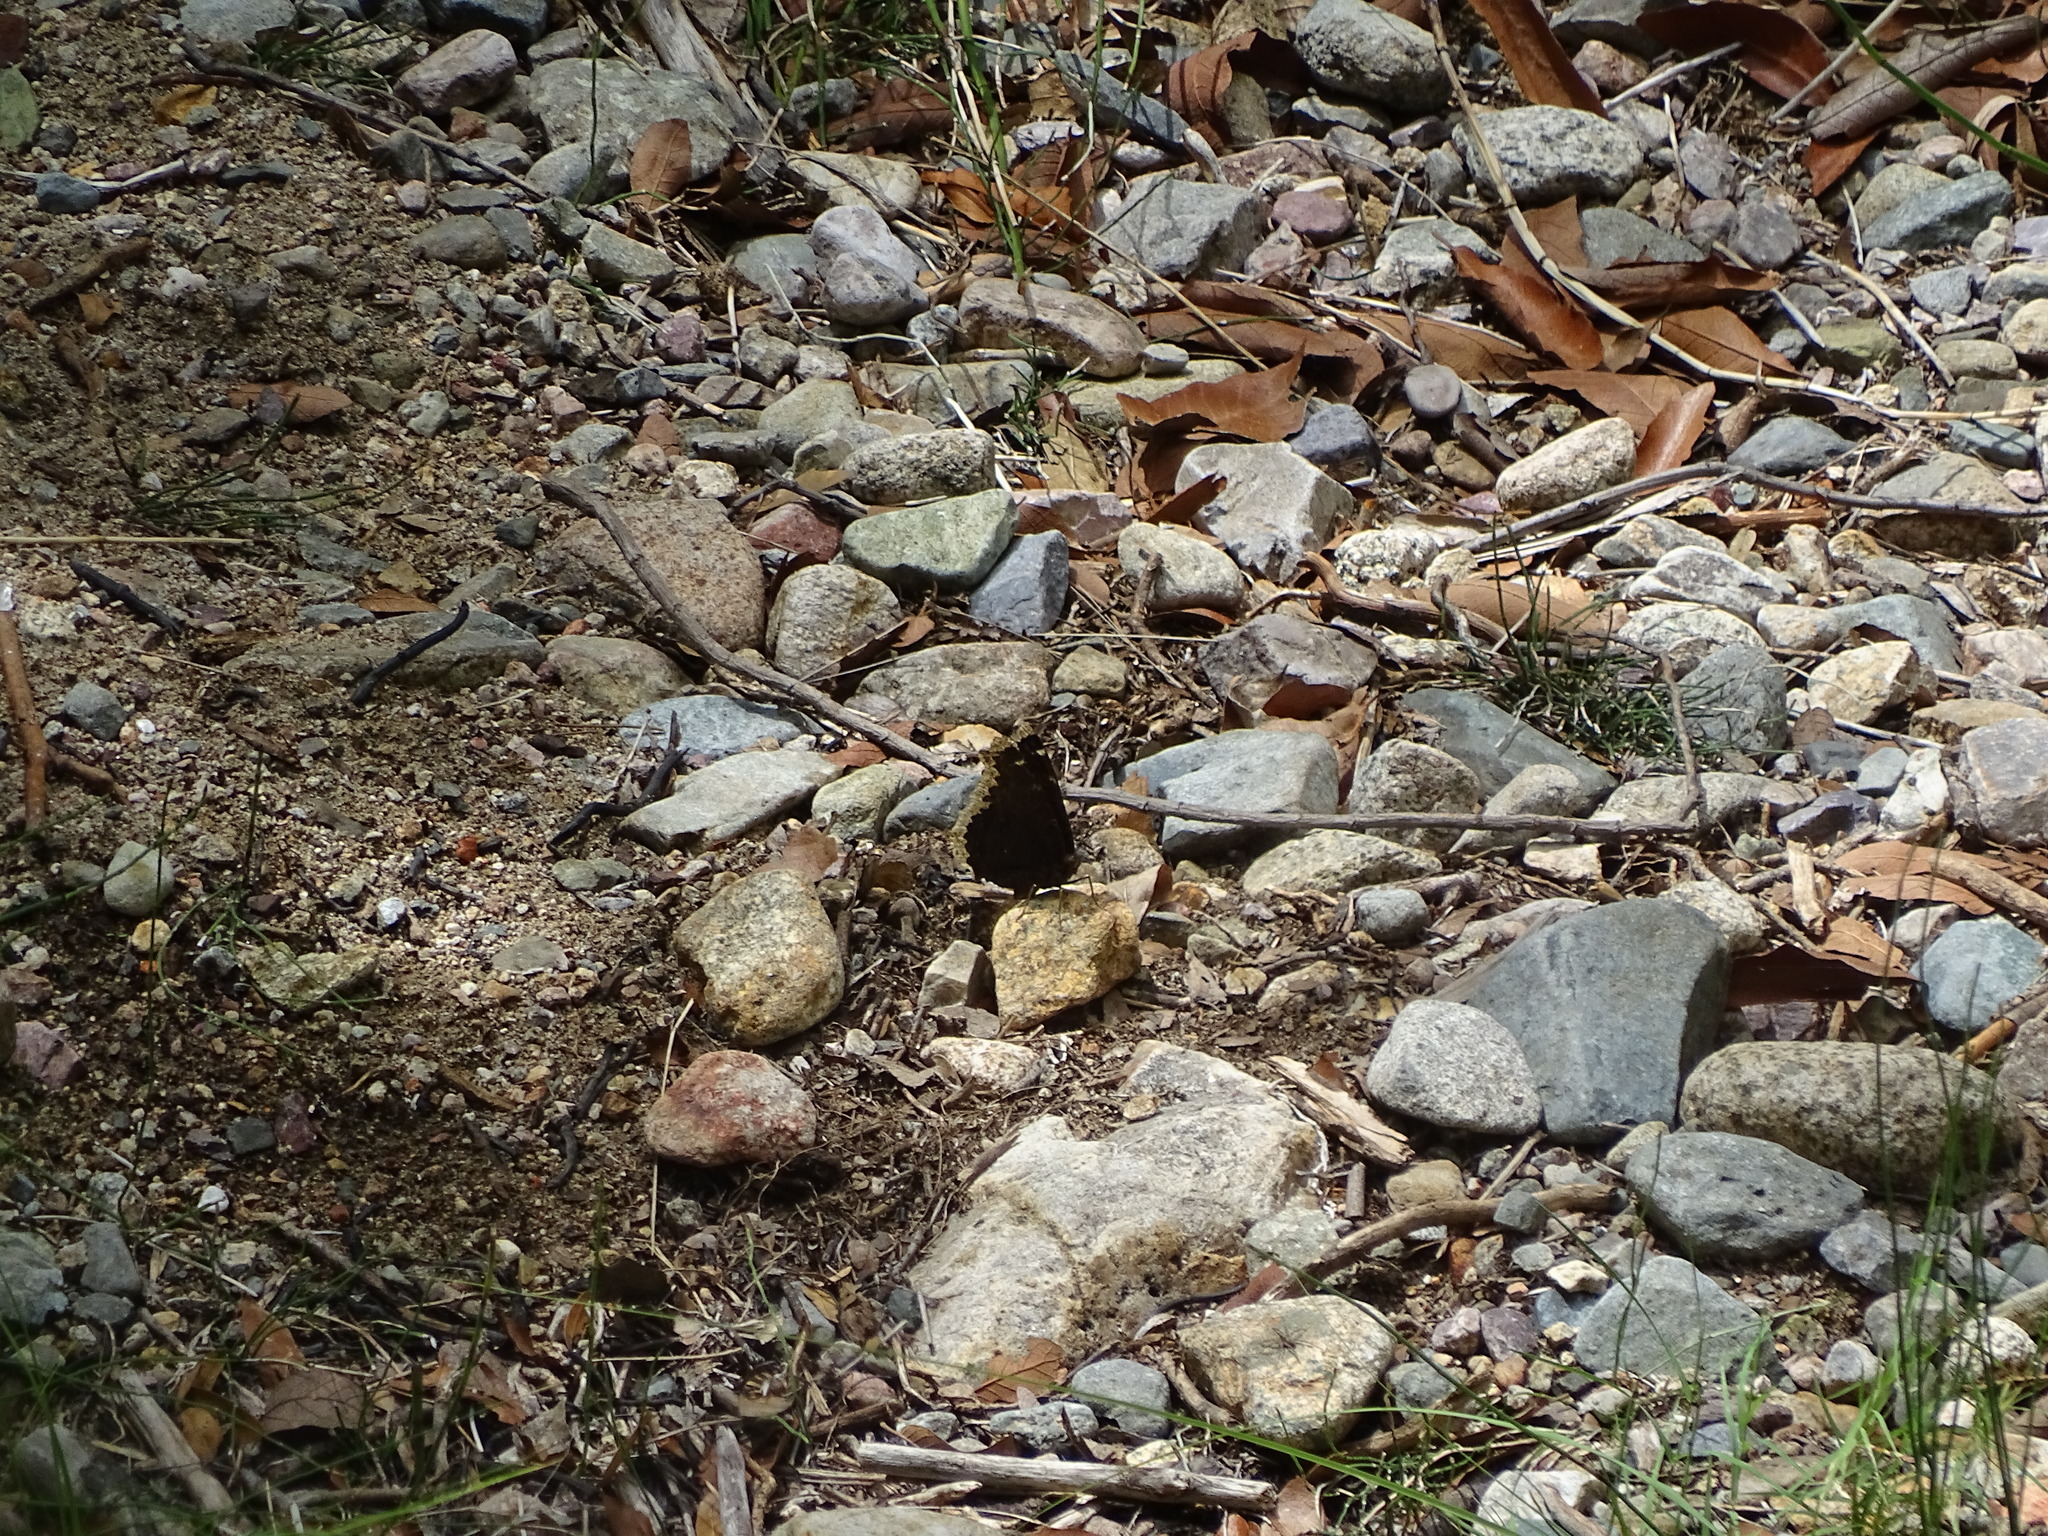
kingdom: Animalia
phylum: Arthropoda
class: Insecta
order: Lepidoptera
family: Nymphalidae
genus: Nymphalis
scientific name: Nymphalis antiopa
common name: Camberwell beauty
